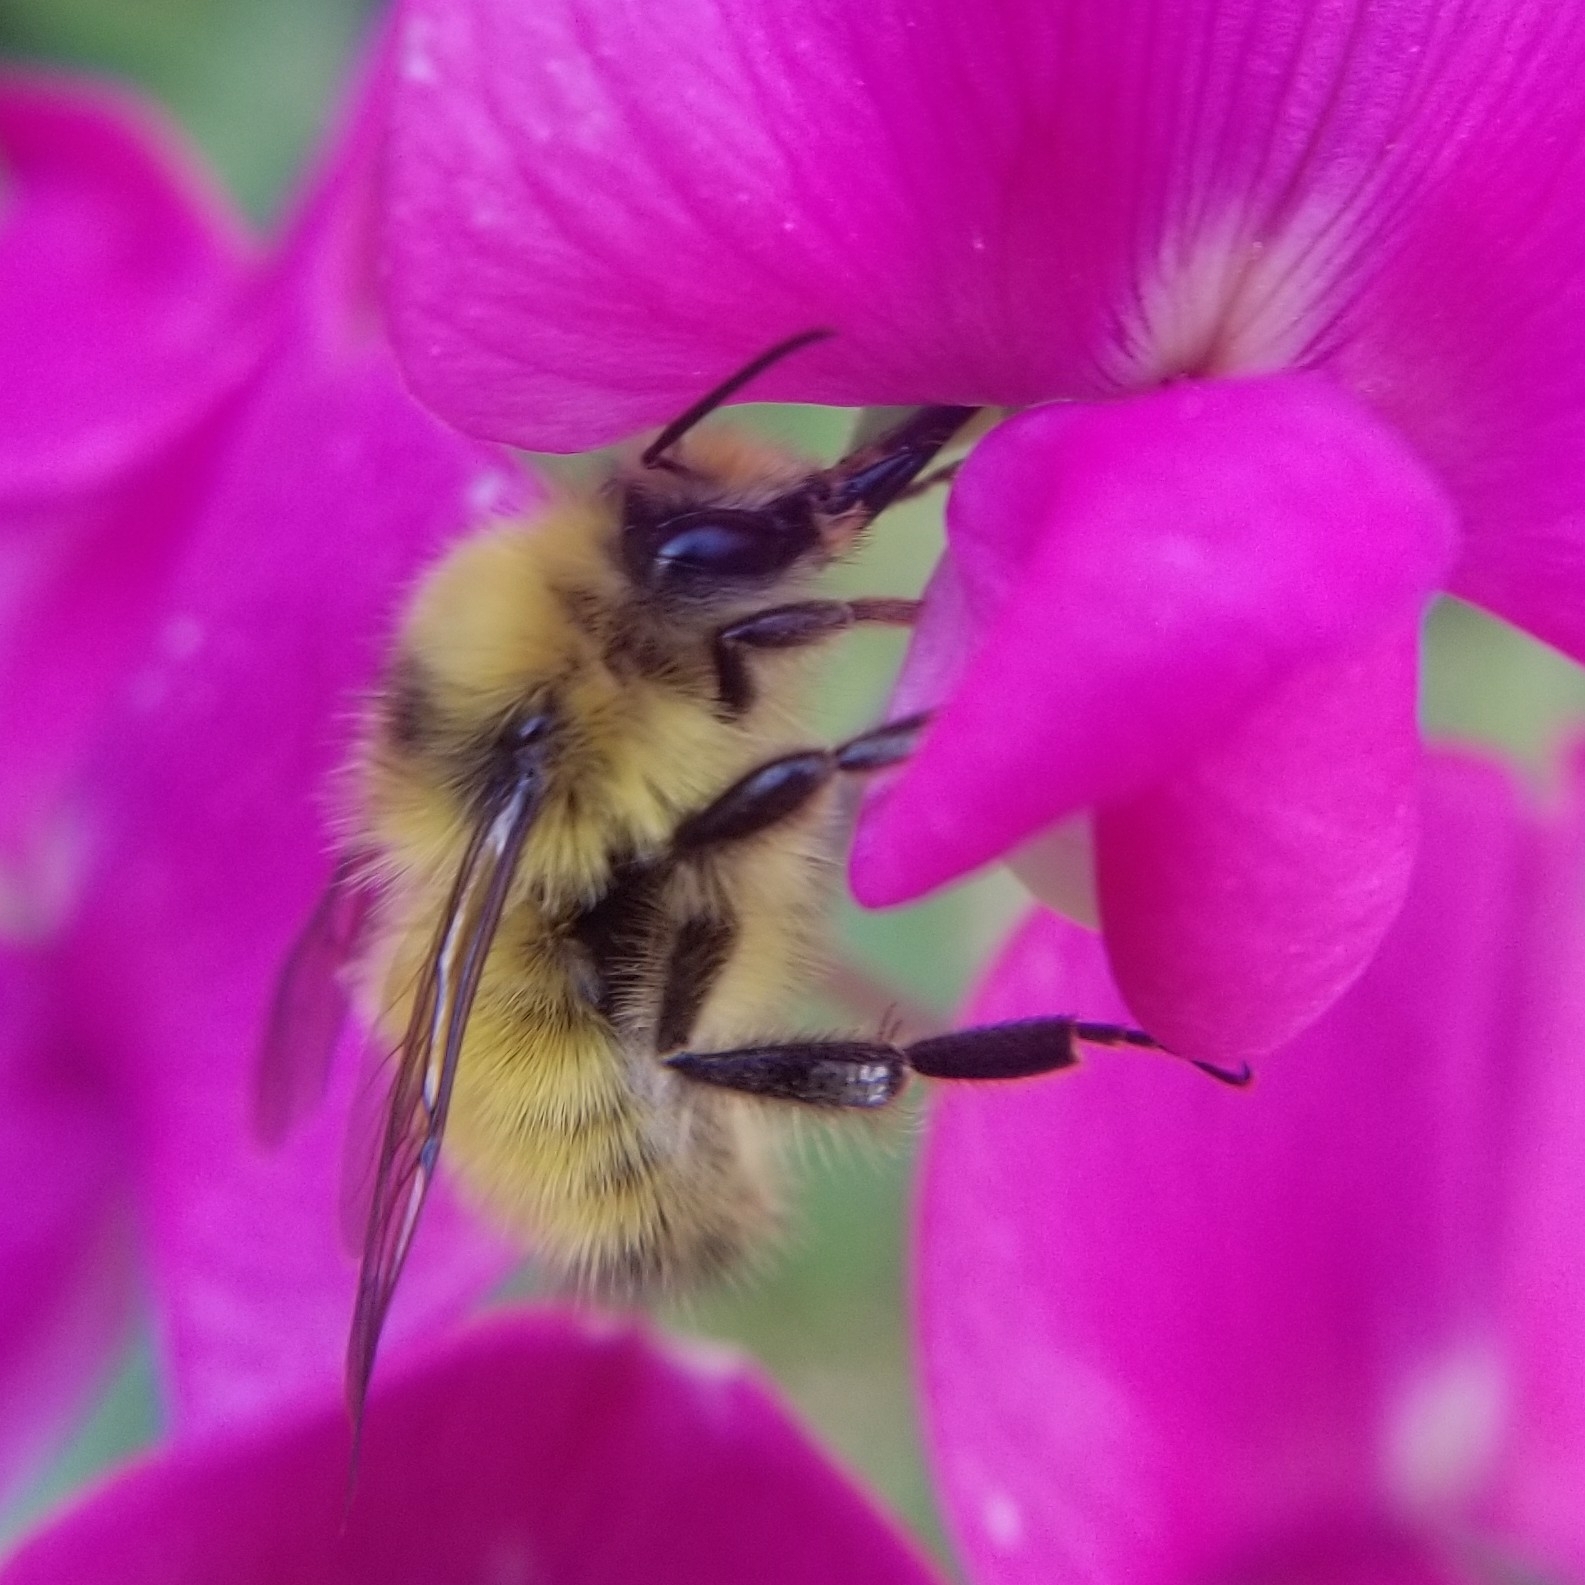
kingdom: Animalia
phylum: Arthropoda
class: Insecta
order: Hymenoptera
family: Apidae
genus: Bombus
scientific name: Bombus flavifrons
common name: Yellow head bumble bee
